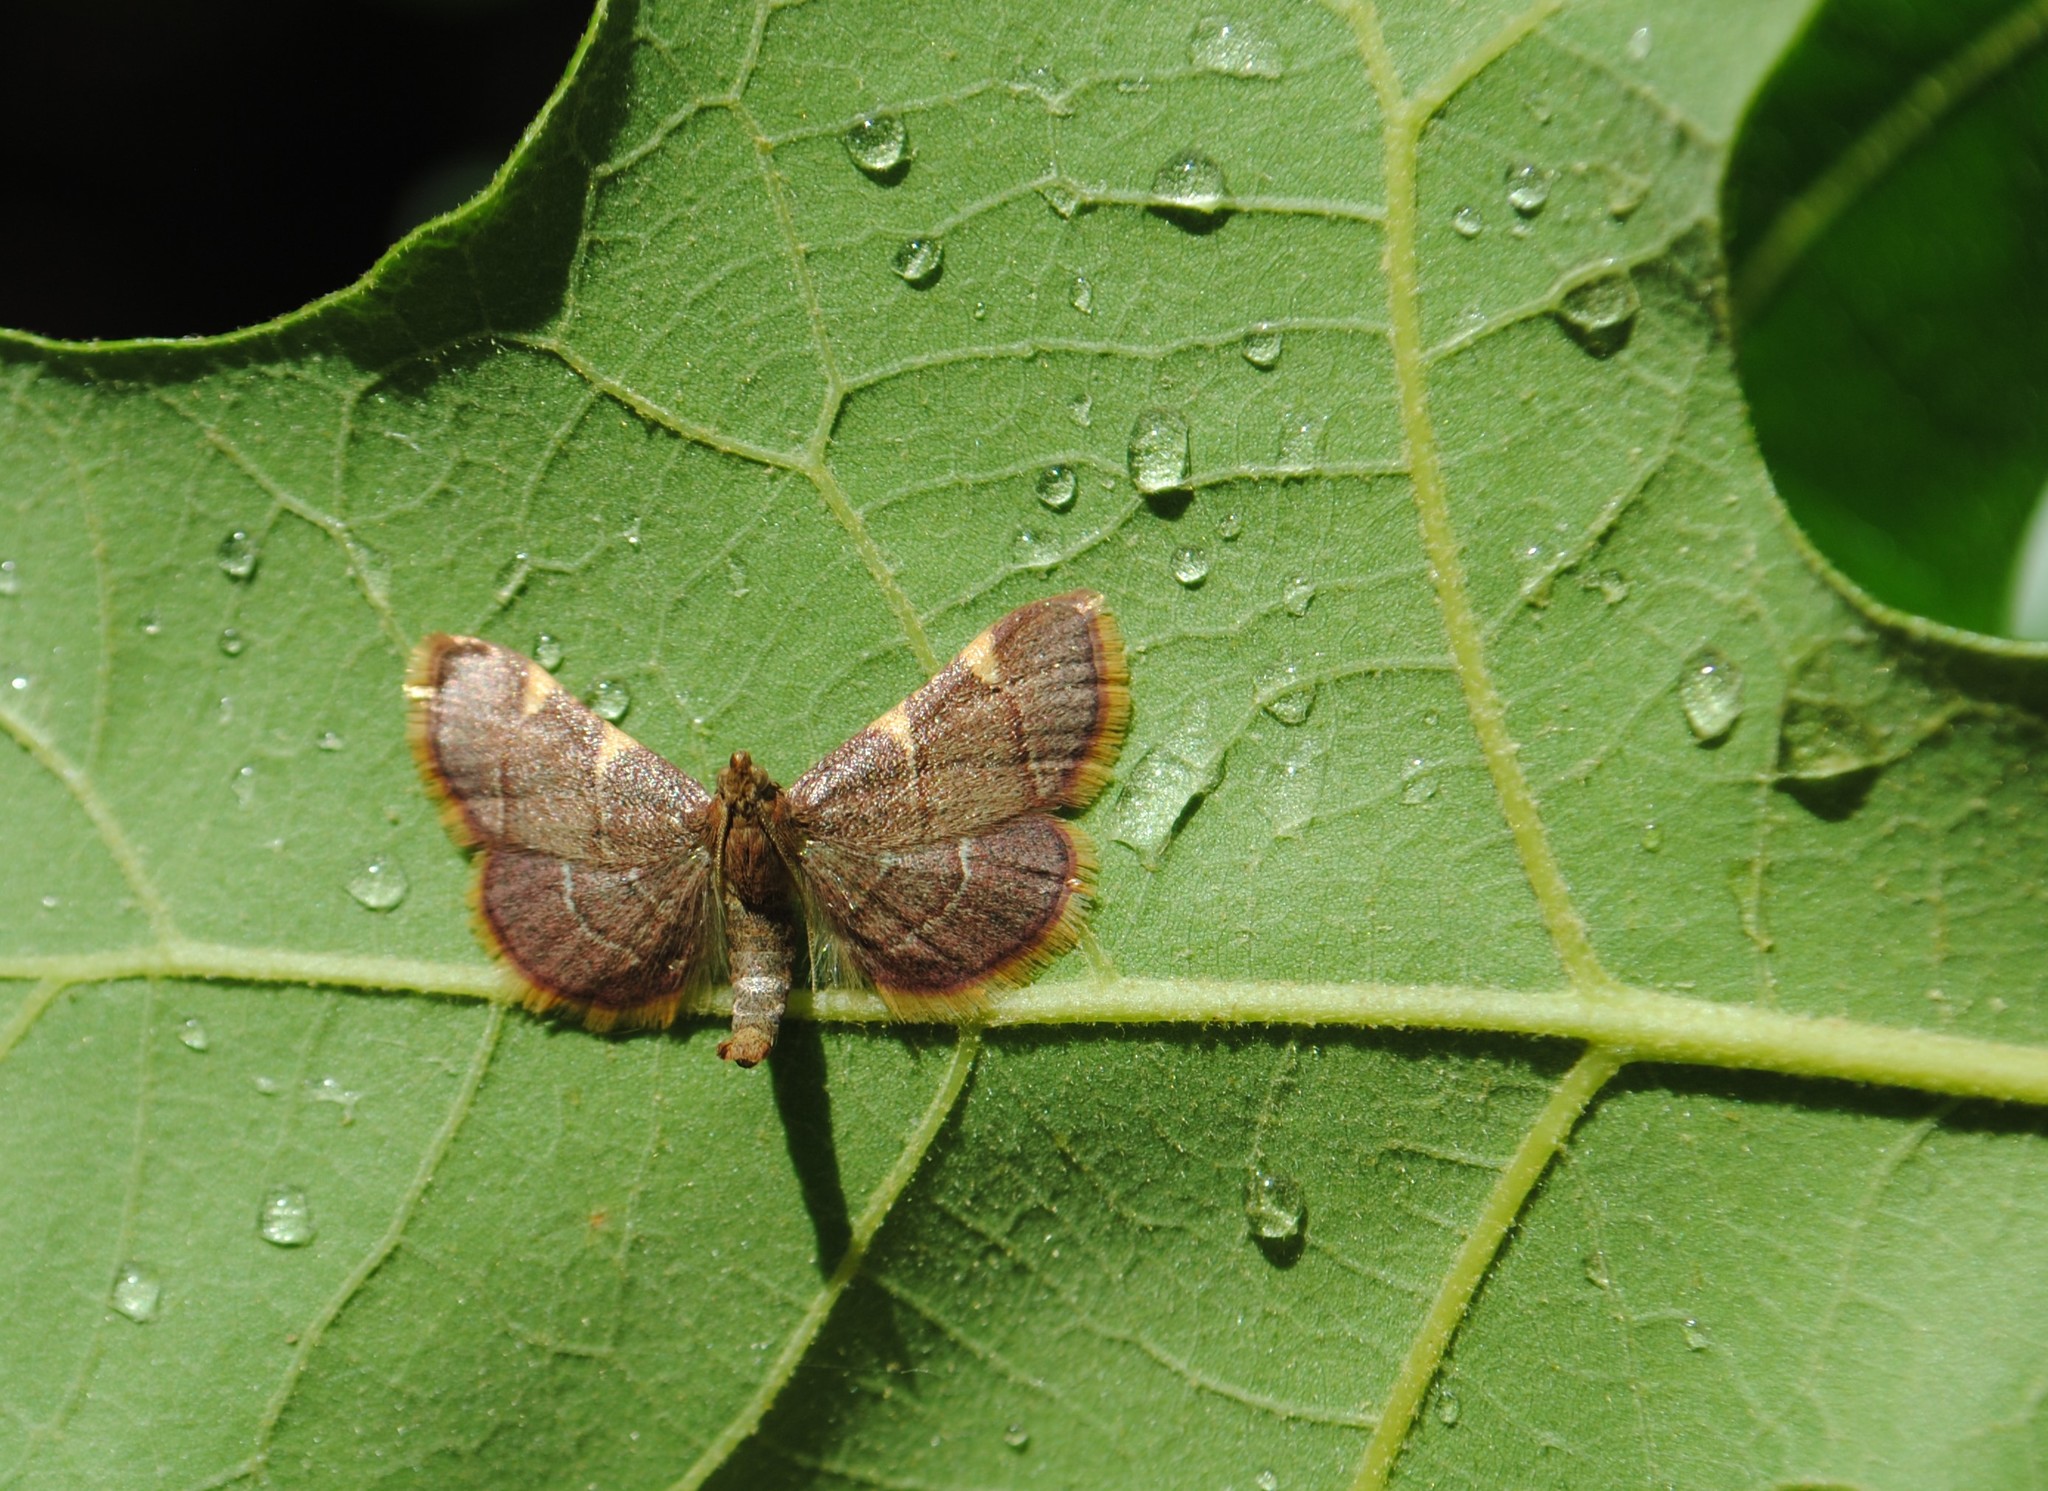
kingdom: Animalia
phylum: Arthropoda
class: Insecta
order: Lepidoptera
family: Pyralidae
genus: Hypsopygia
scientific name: Hypsopygia olinalis
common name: Yellow-fringed dolichomia moth
